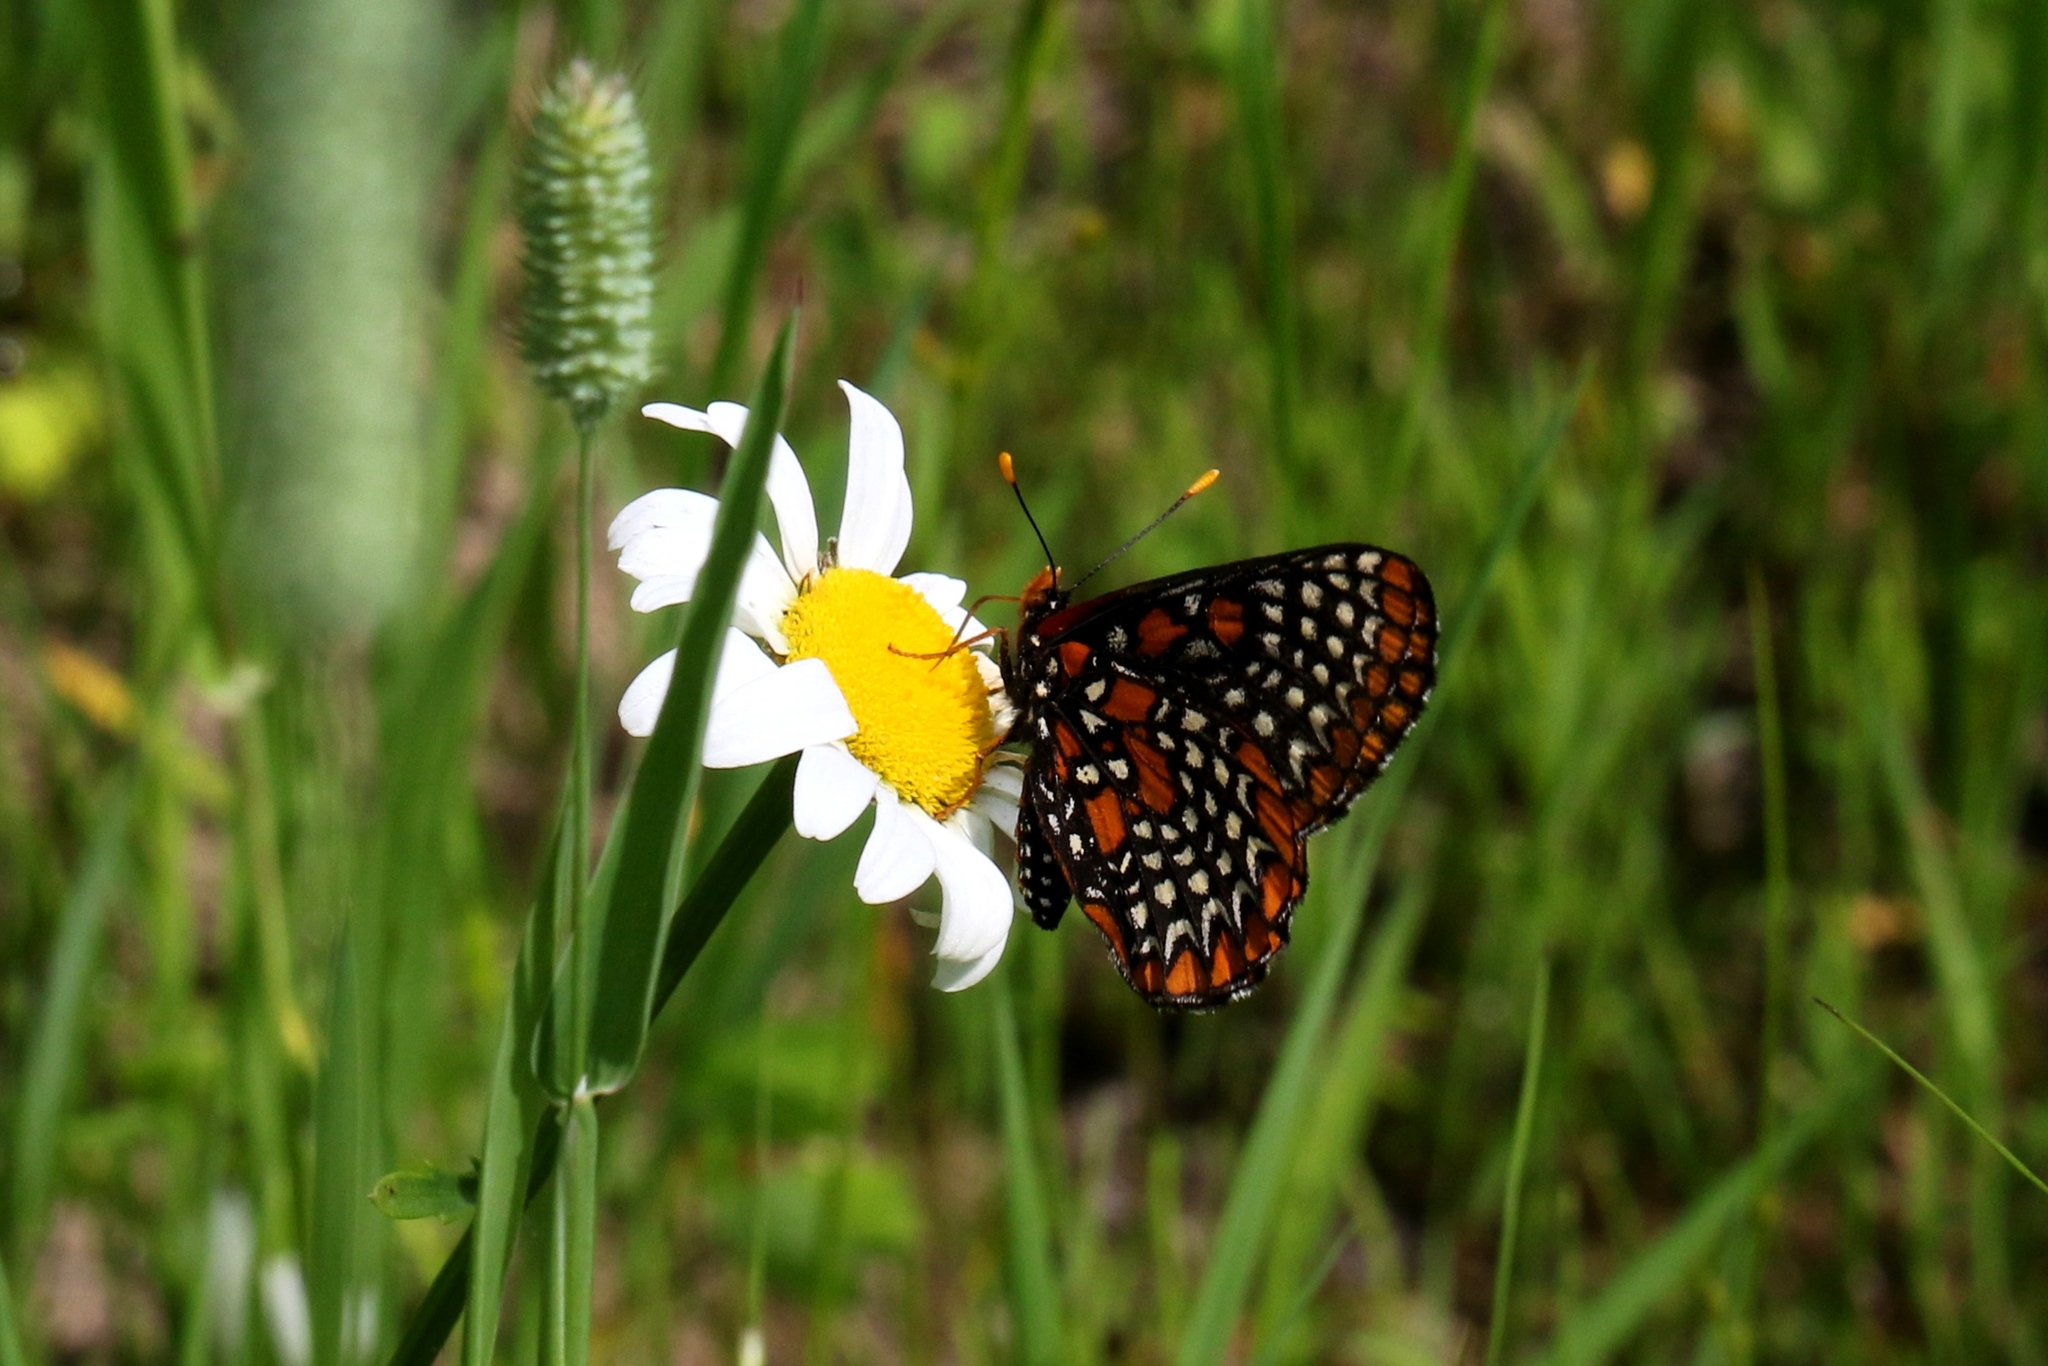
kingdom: Animalia
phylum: Arthropoda
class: Insecta
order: Lepidoptera
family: Nymphalidae
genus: Euphydryas
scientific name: Euphydryas phaeton
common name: Baltimore checkerspot
